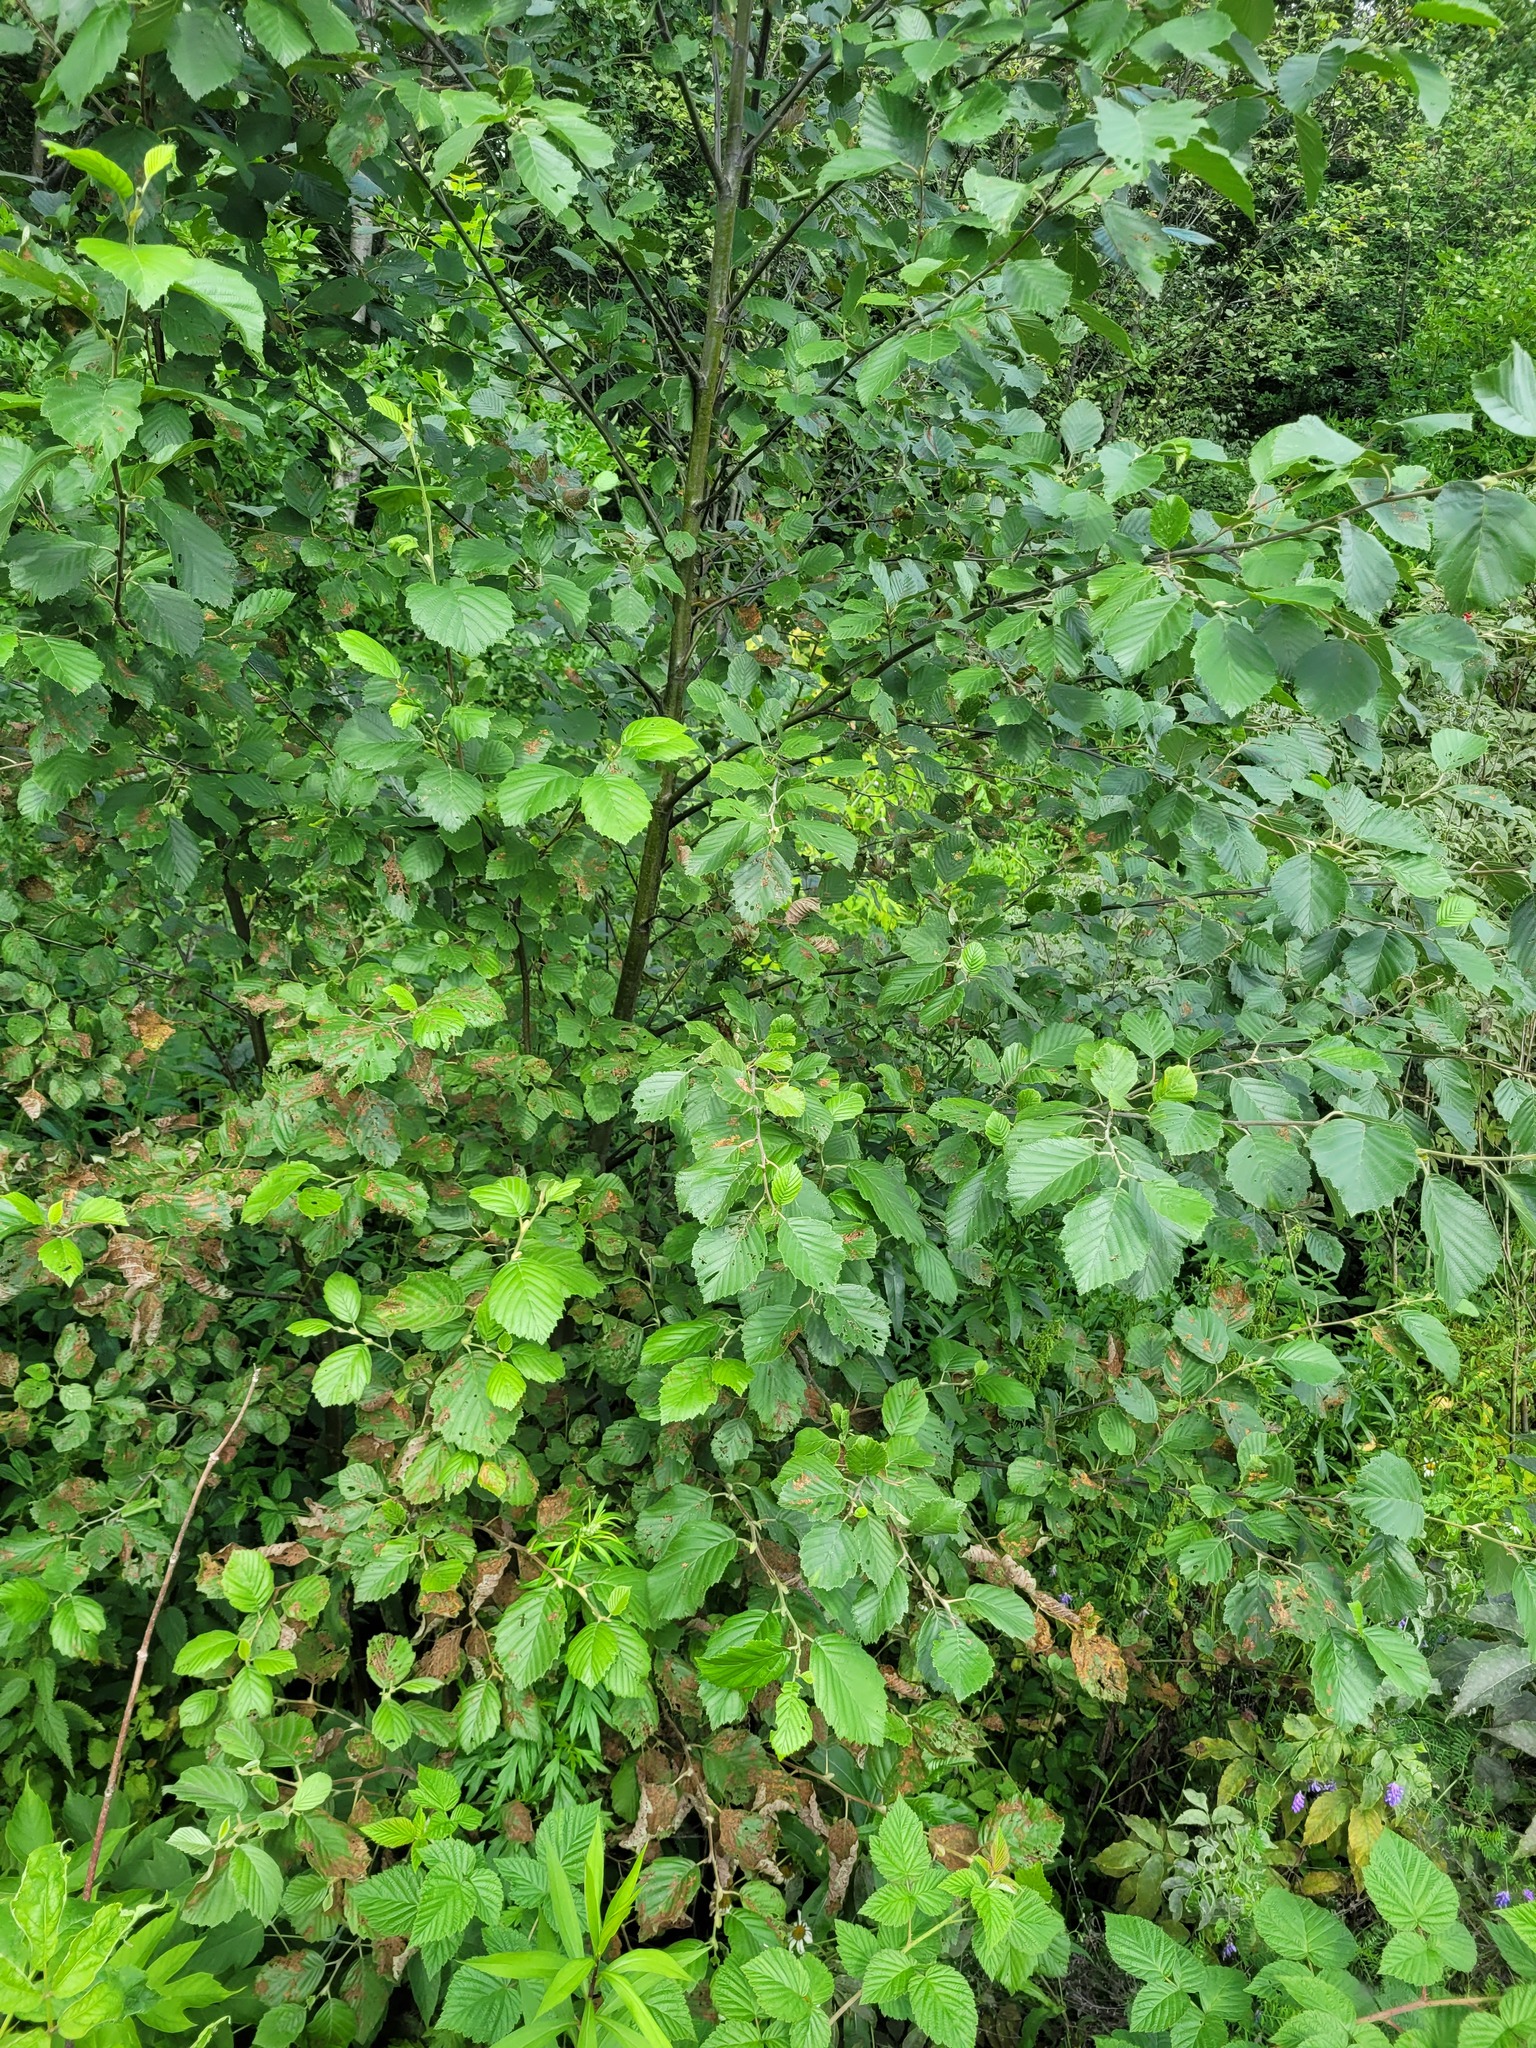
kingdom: Plantae
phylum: Tracheophyta
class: Magnoliopsida
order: Fagales
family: Betulaceae
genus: Alnus
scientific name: Alnus incana
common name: Grey alder
